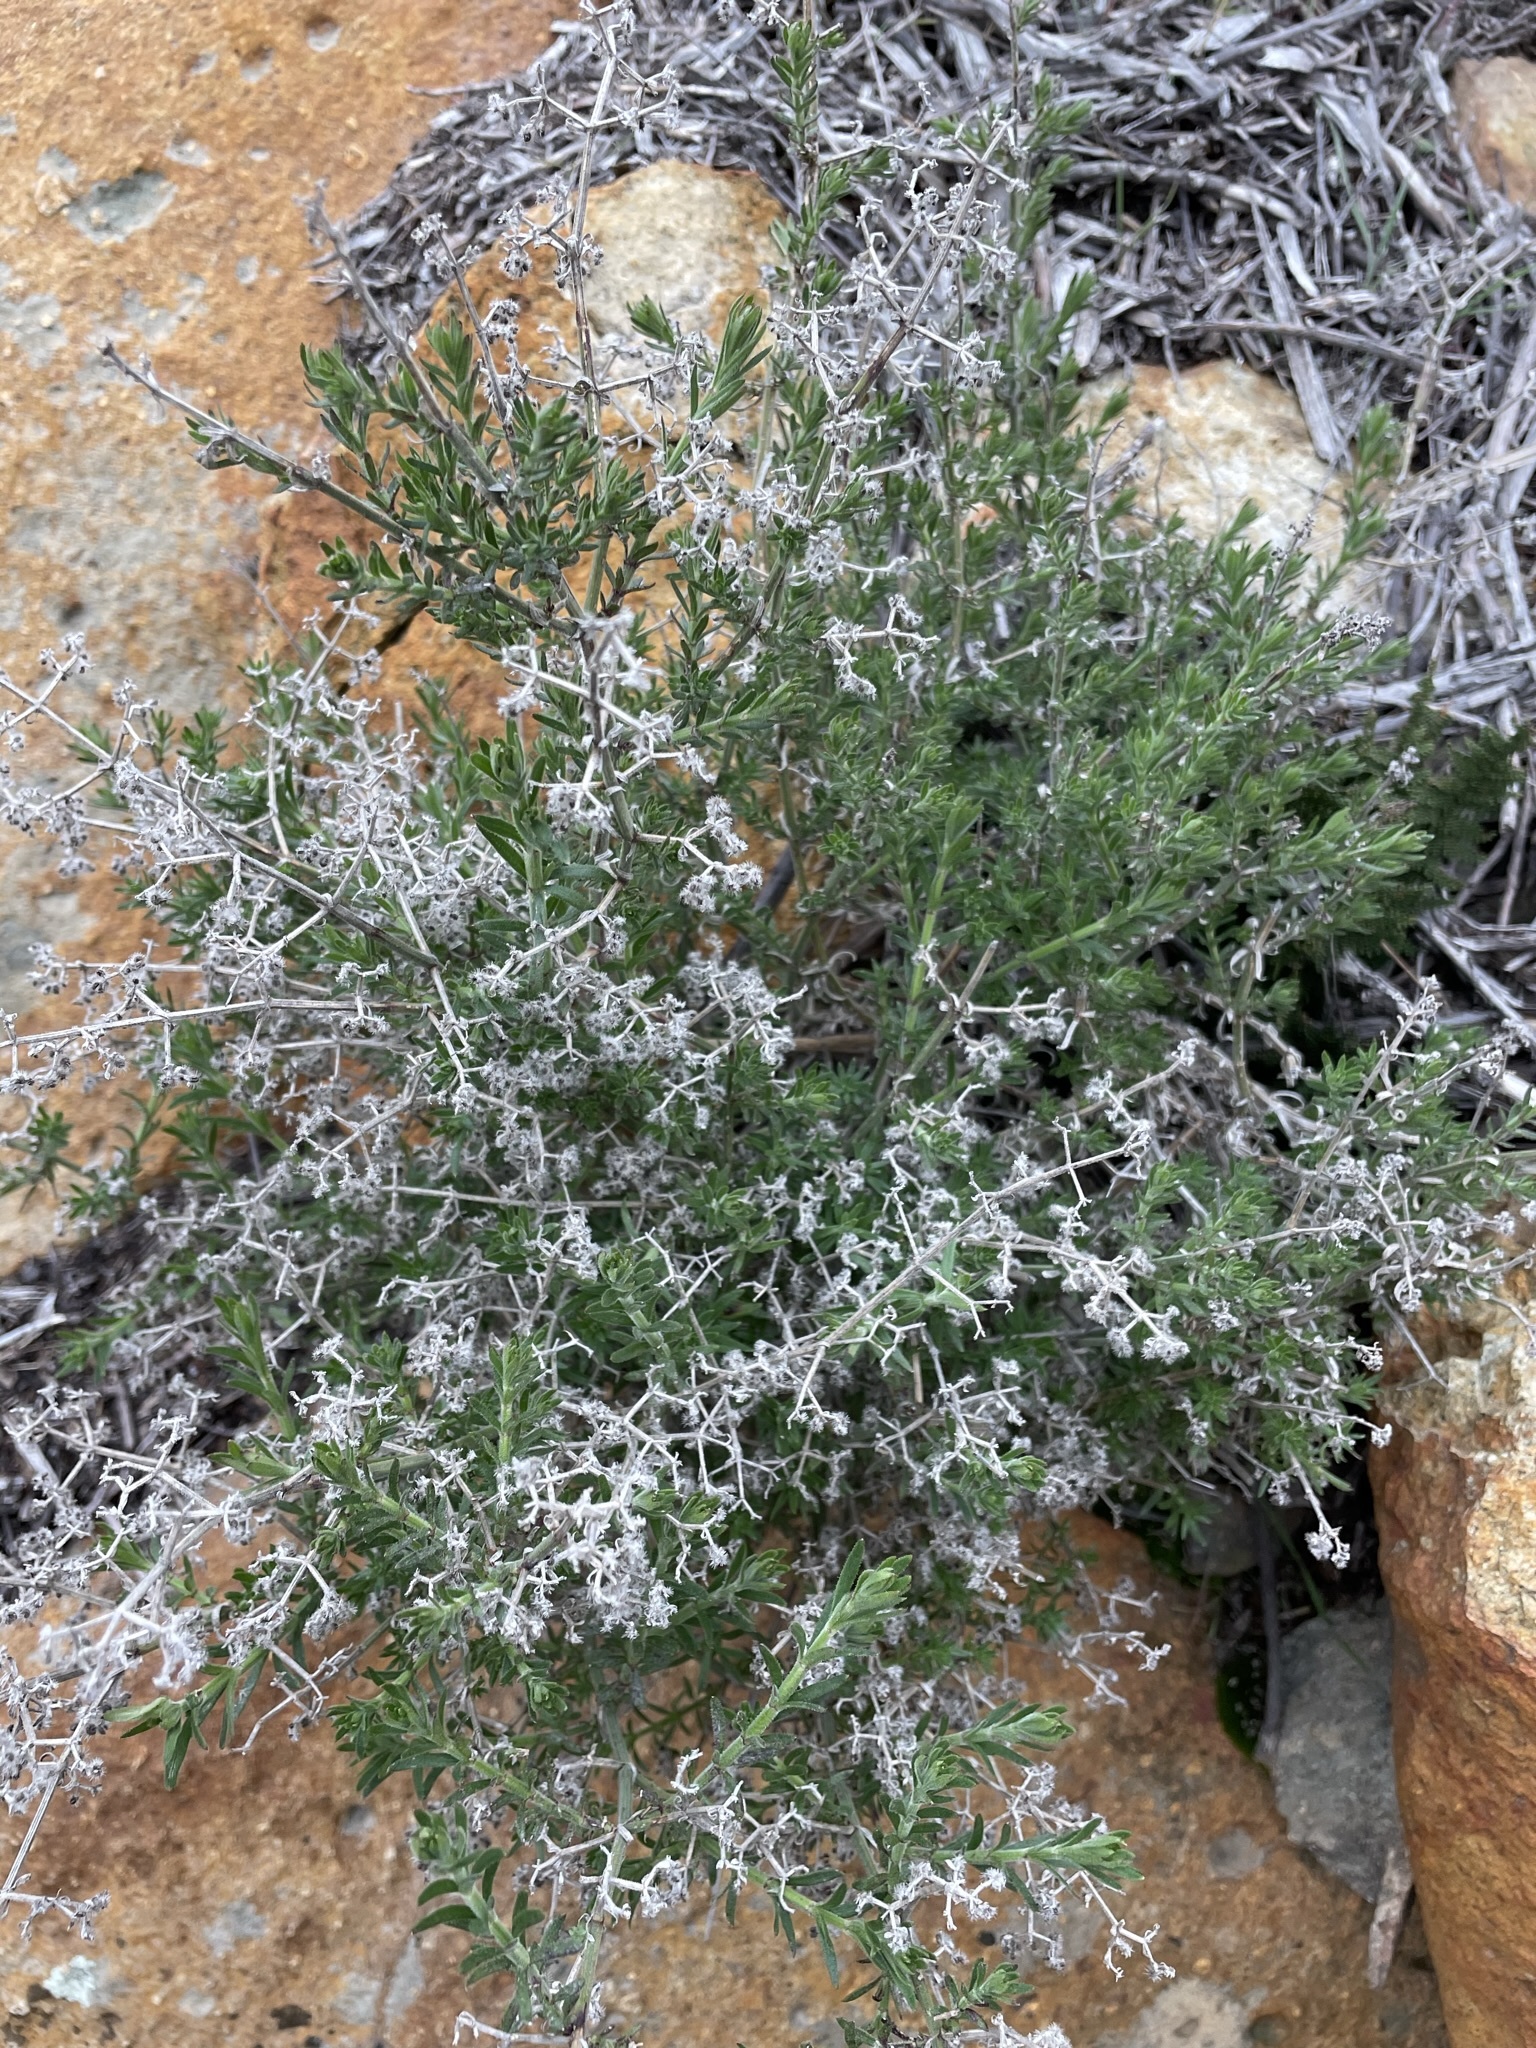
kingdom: Plantae
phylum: Tracheophyta
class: Magnoliopsida
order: Gentianales
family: Rubiaceae
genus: Galium
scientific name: Galium stellatum
